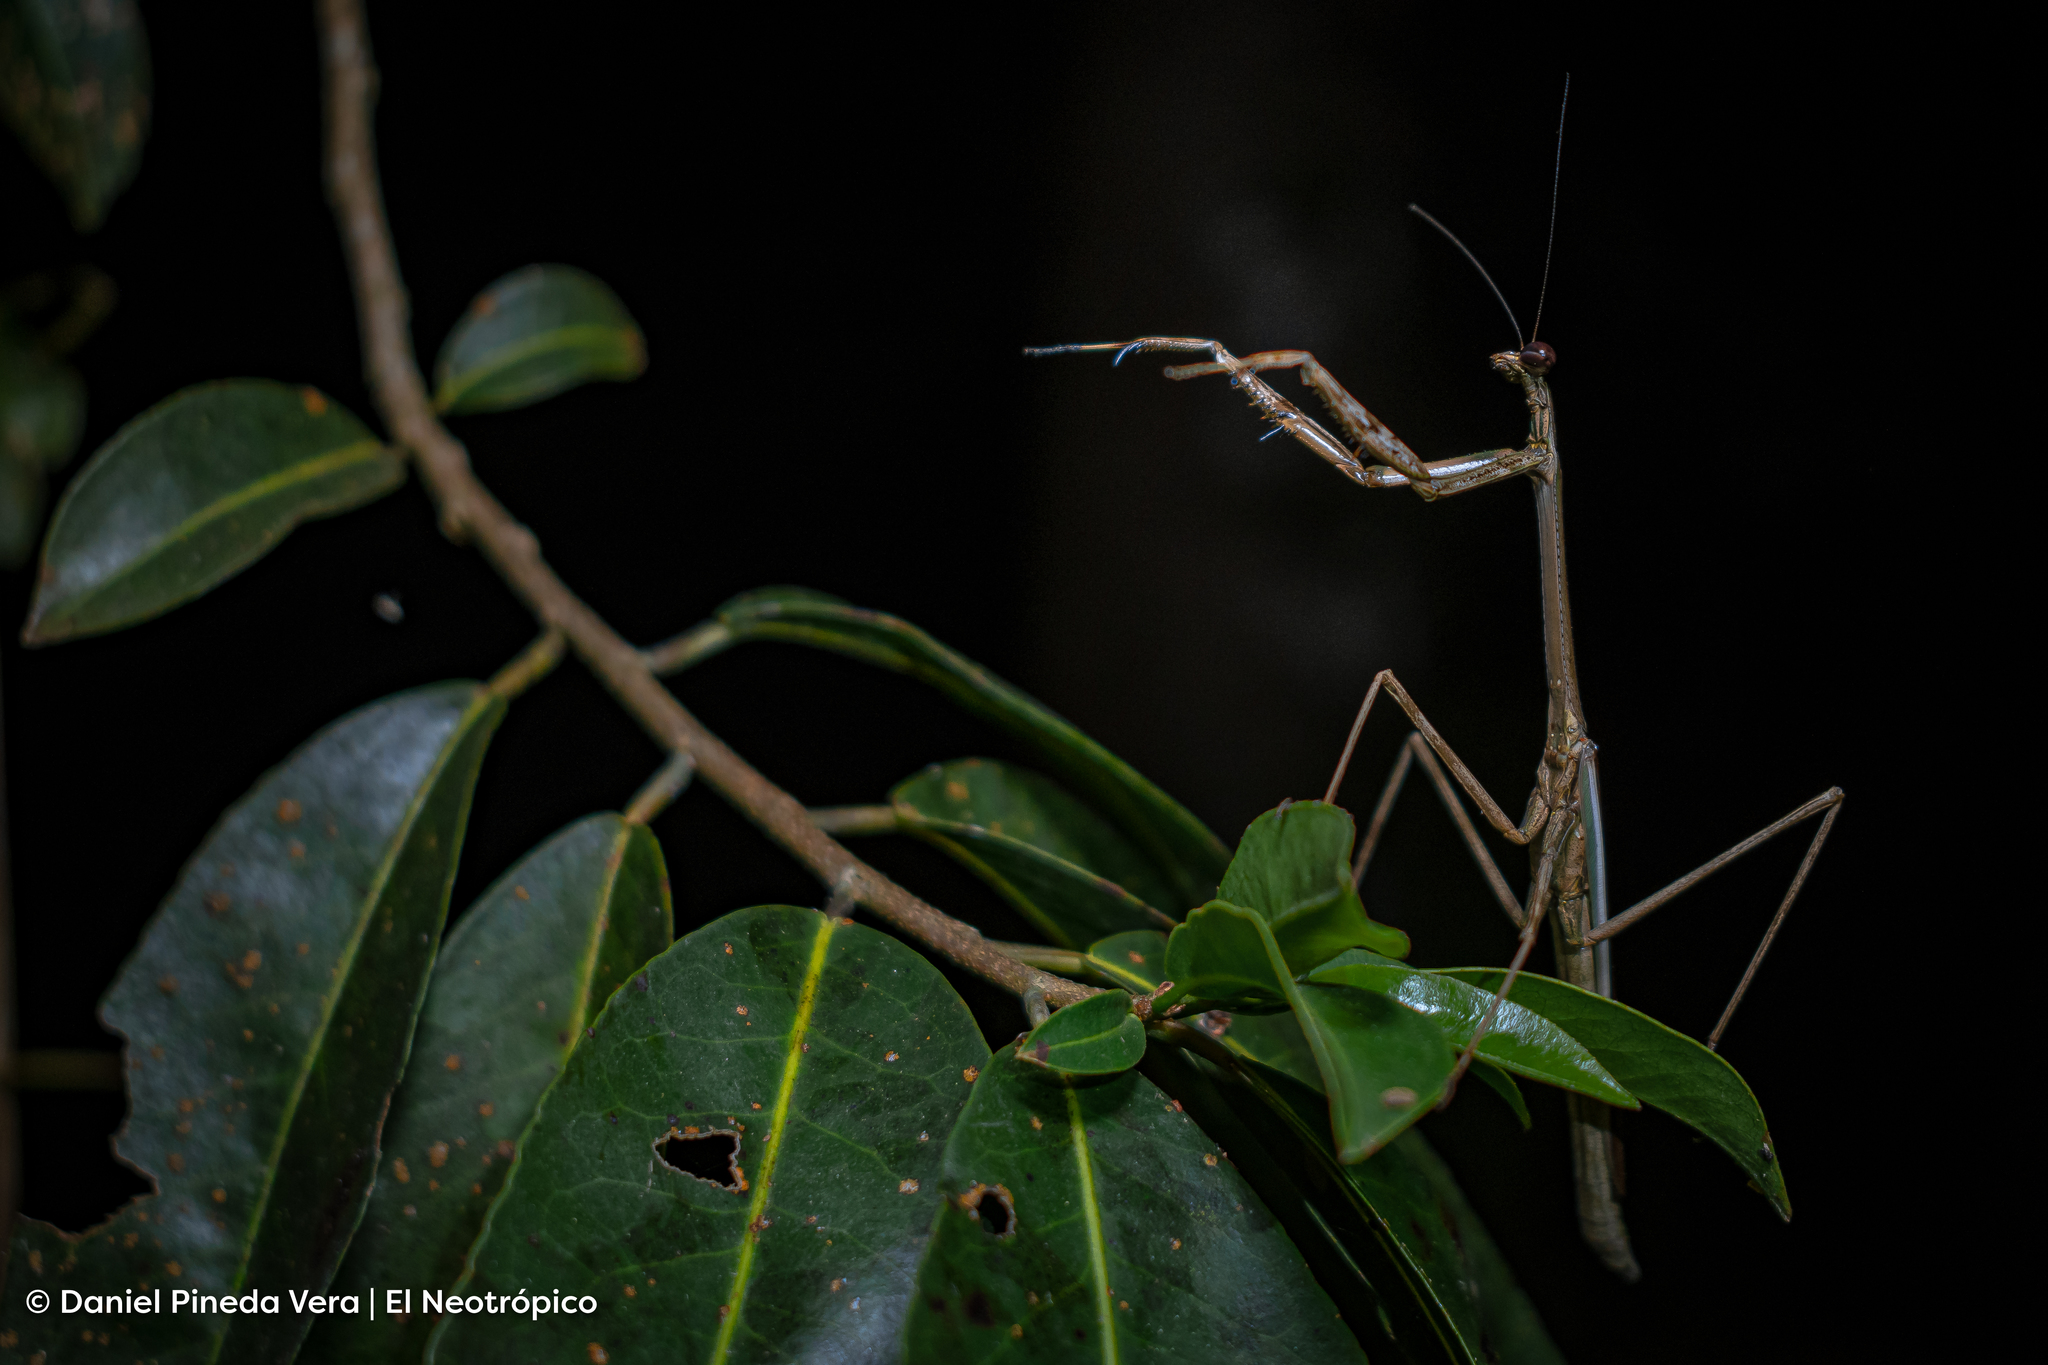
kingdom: Animalia
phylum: Arthropoda
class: Insecta
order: Mantodea
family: Mantidae
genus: Phasmomantis
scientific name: Phasmomantis sumichrasti
